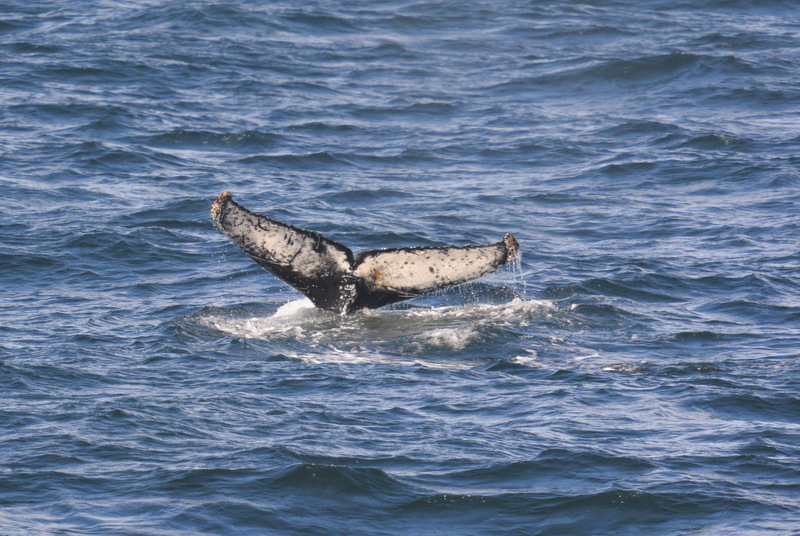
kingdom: Animalia
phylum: Chordata
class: Mammalia
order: Cetacea
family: Balaenopteridae
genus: Megaptera
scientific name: Megaptera novaeangliae
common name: Humpback whale
